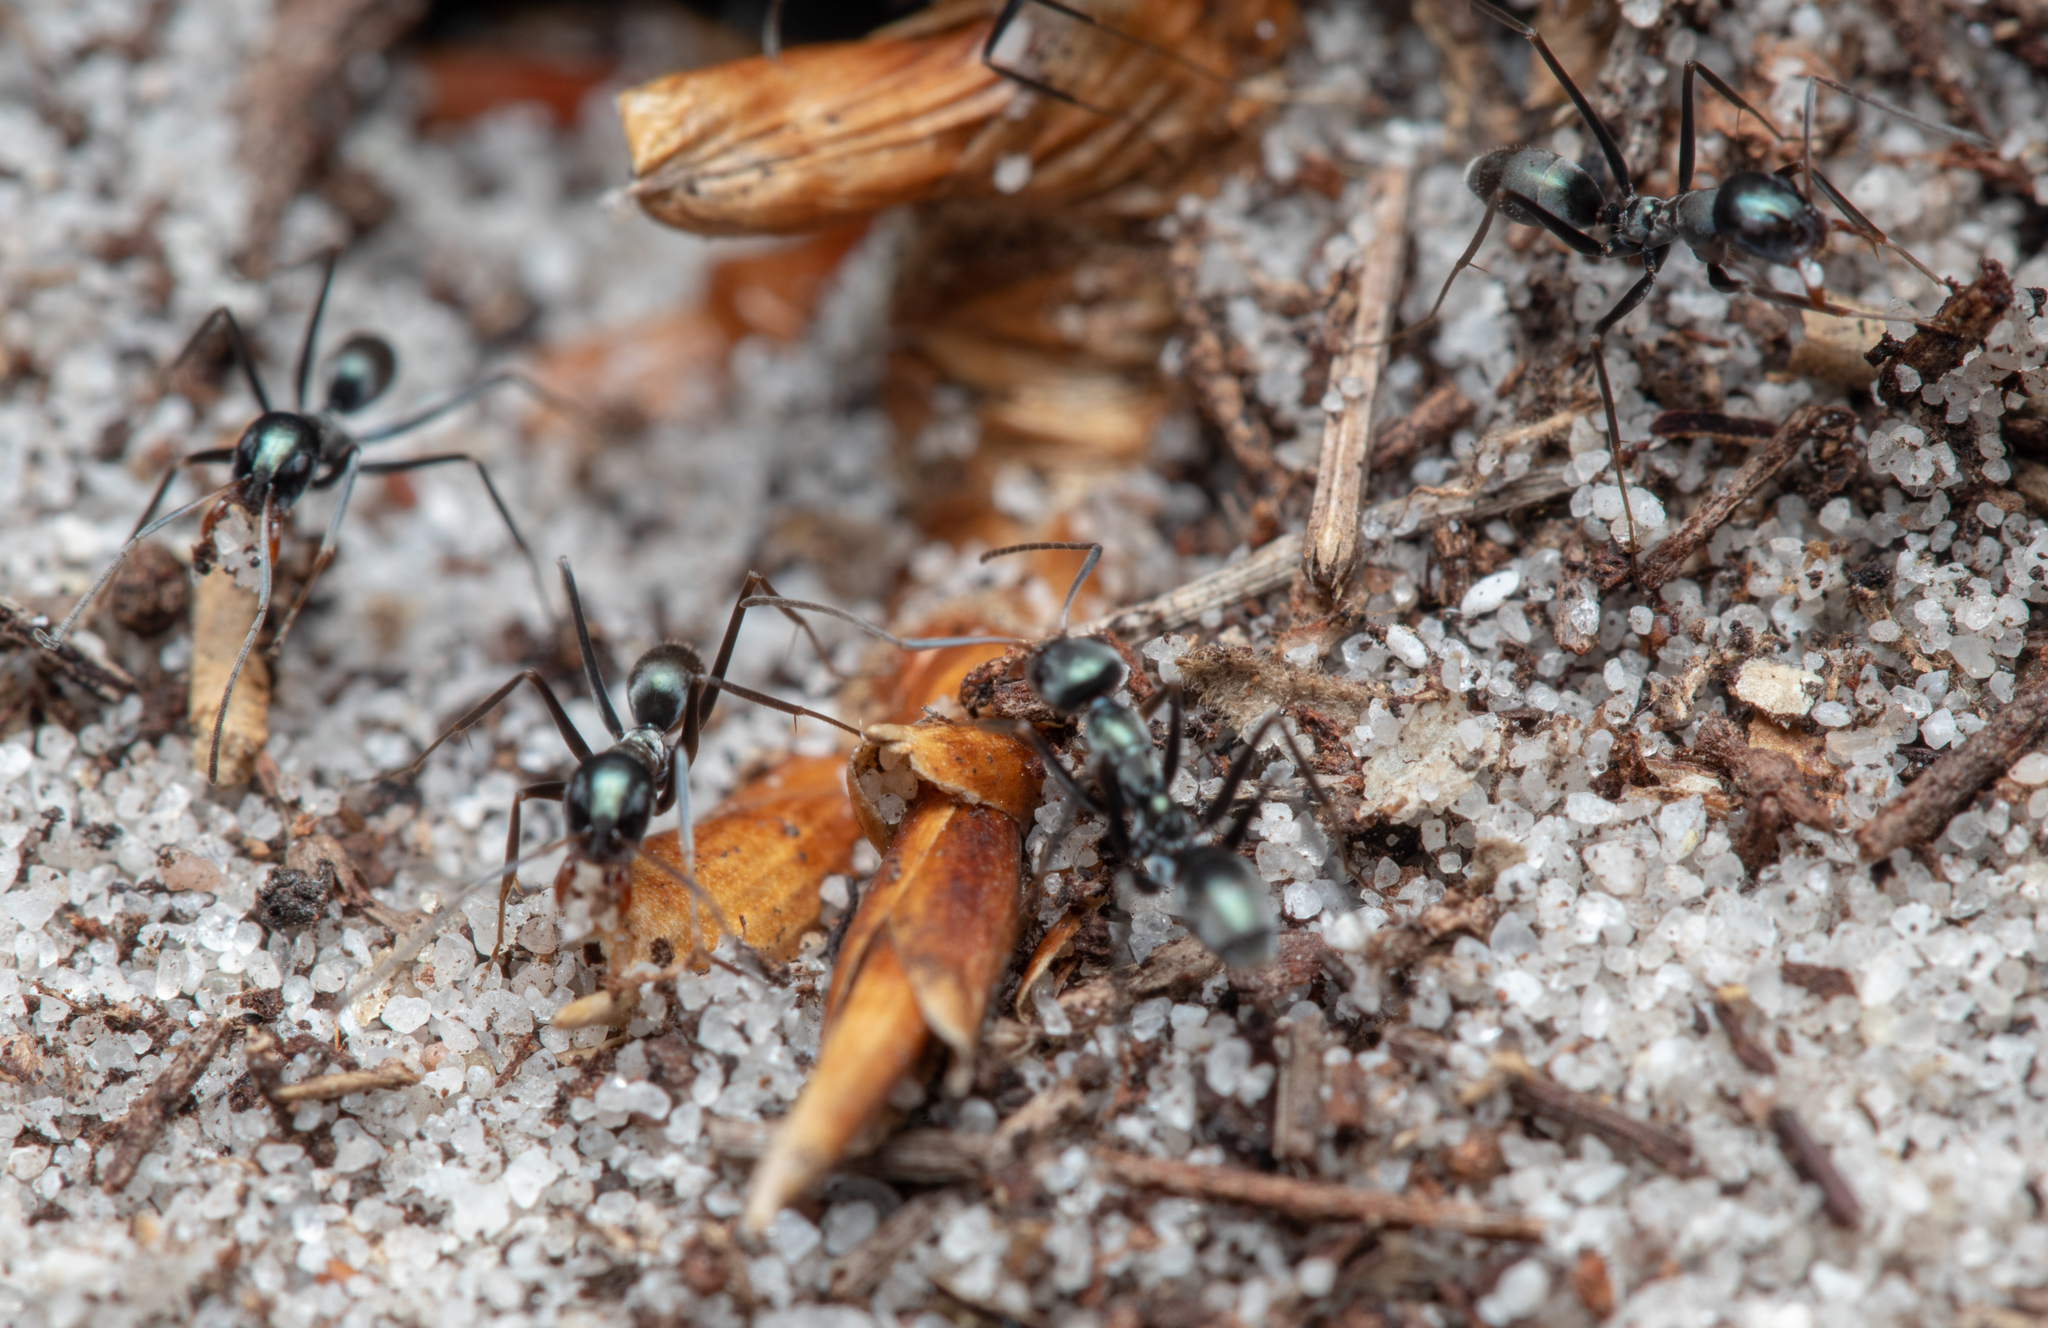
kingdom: Animalia
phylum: Arthropoda
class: Insecta
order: Hymenoptera
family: Formicidae
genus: Iridomyrmex
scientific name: Iridomyrmex bicknelli
